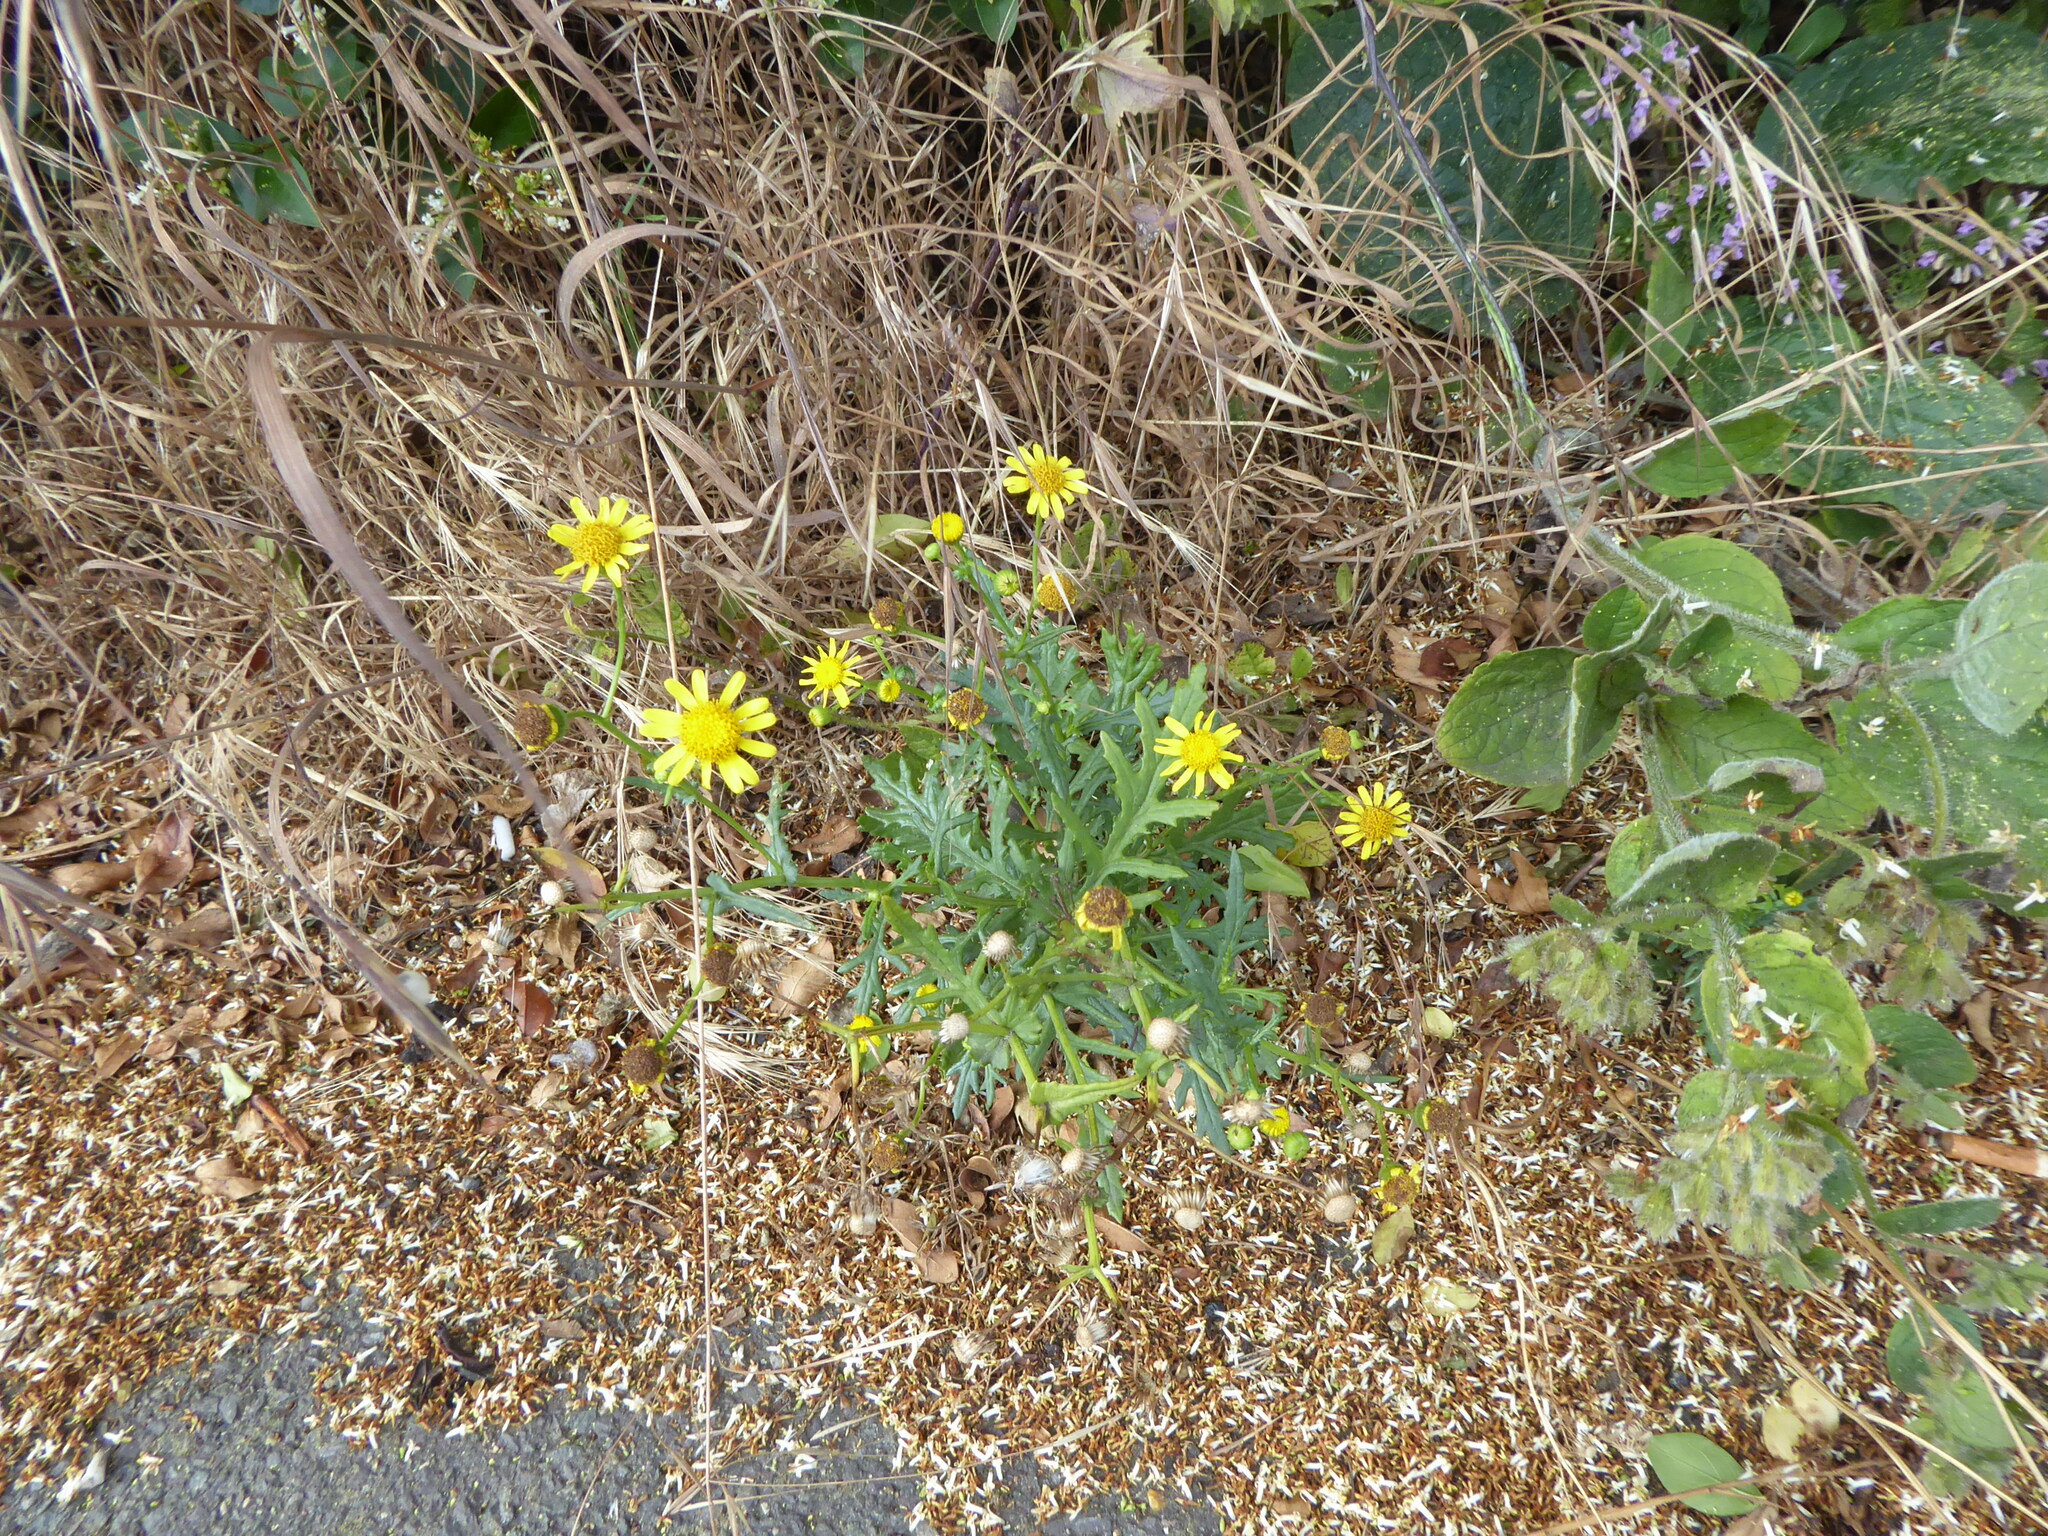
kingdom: Plantae
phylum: Tracheophyta
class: Magnoliopsida
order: Asterales
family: Asteraceae
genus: Senecio
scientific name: Senecio squalidus
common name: Oxford ragwort
